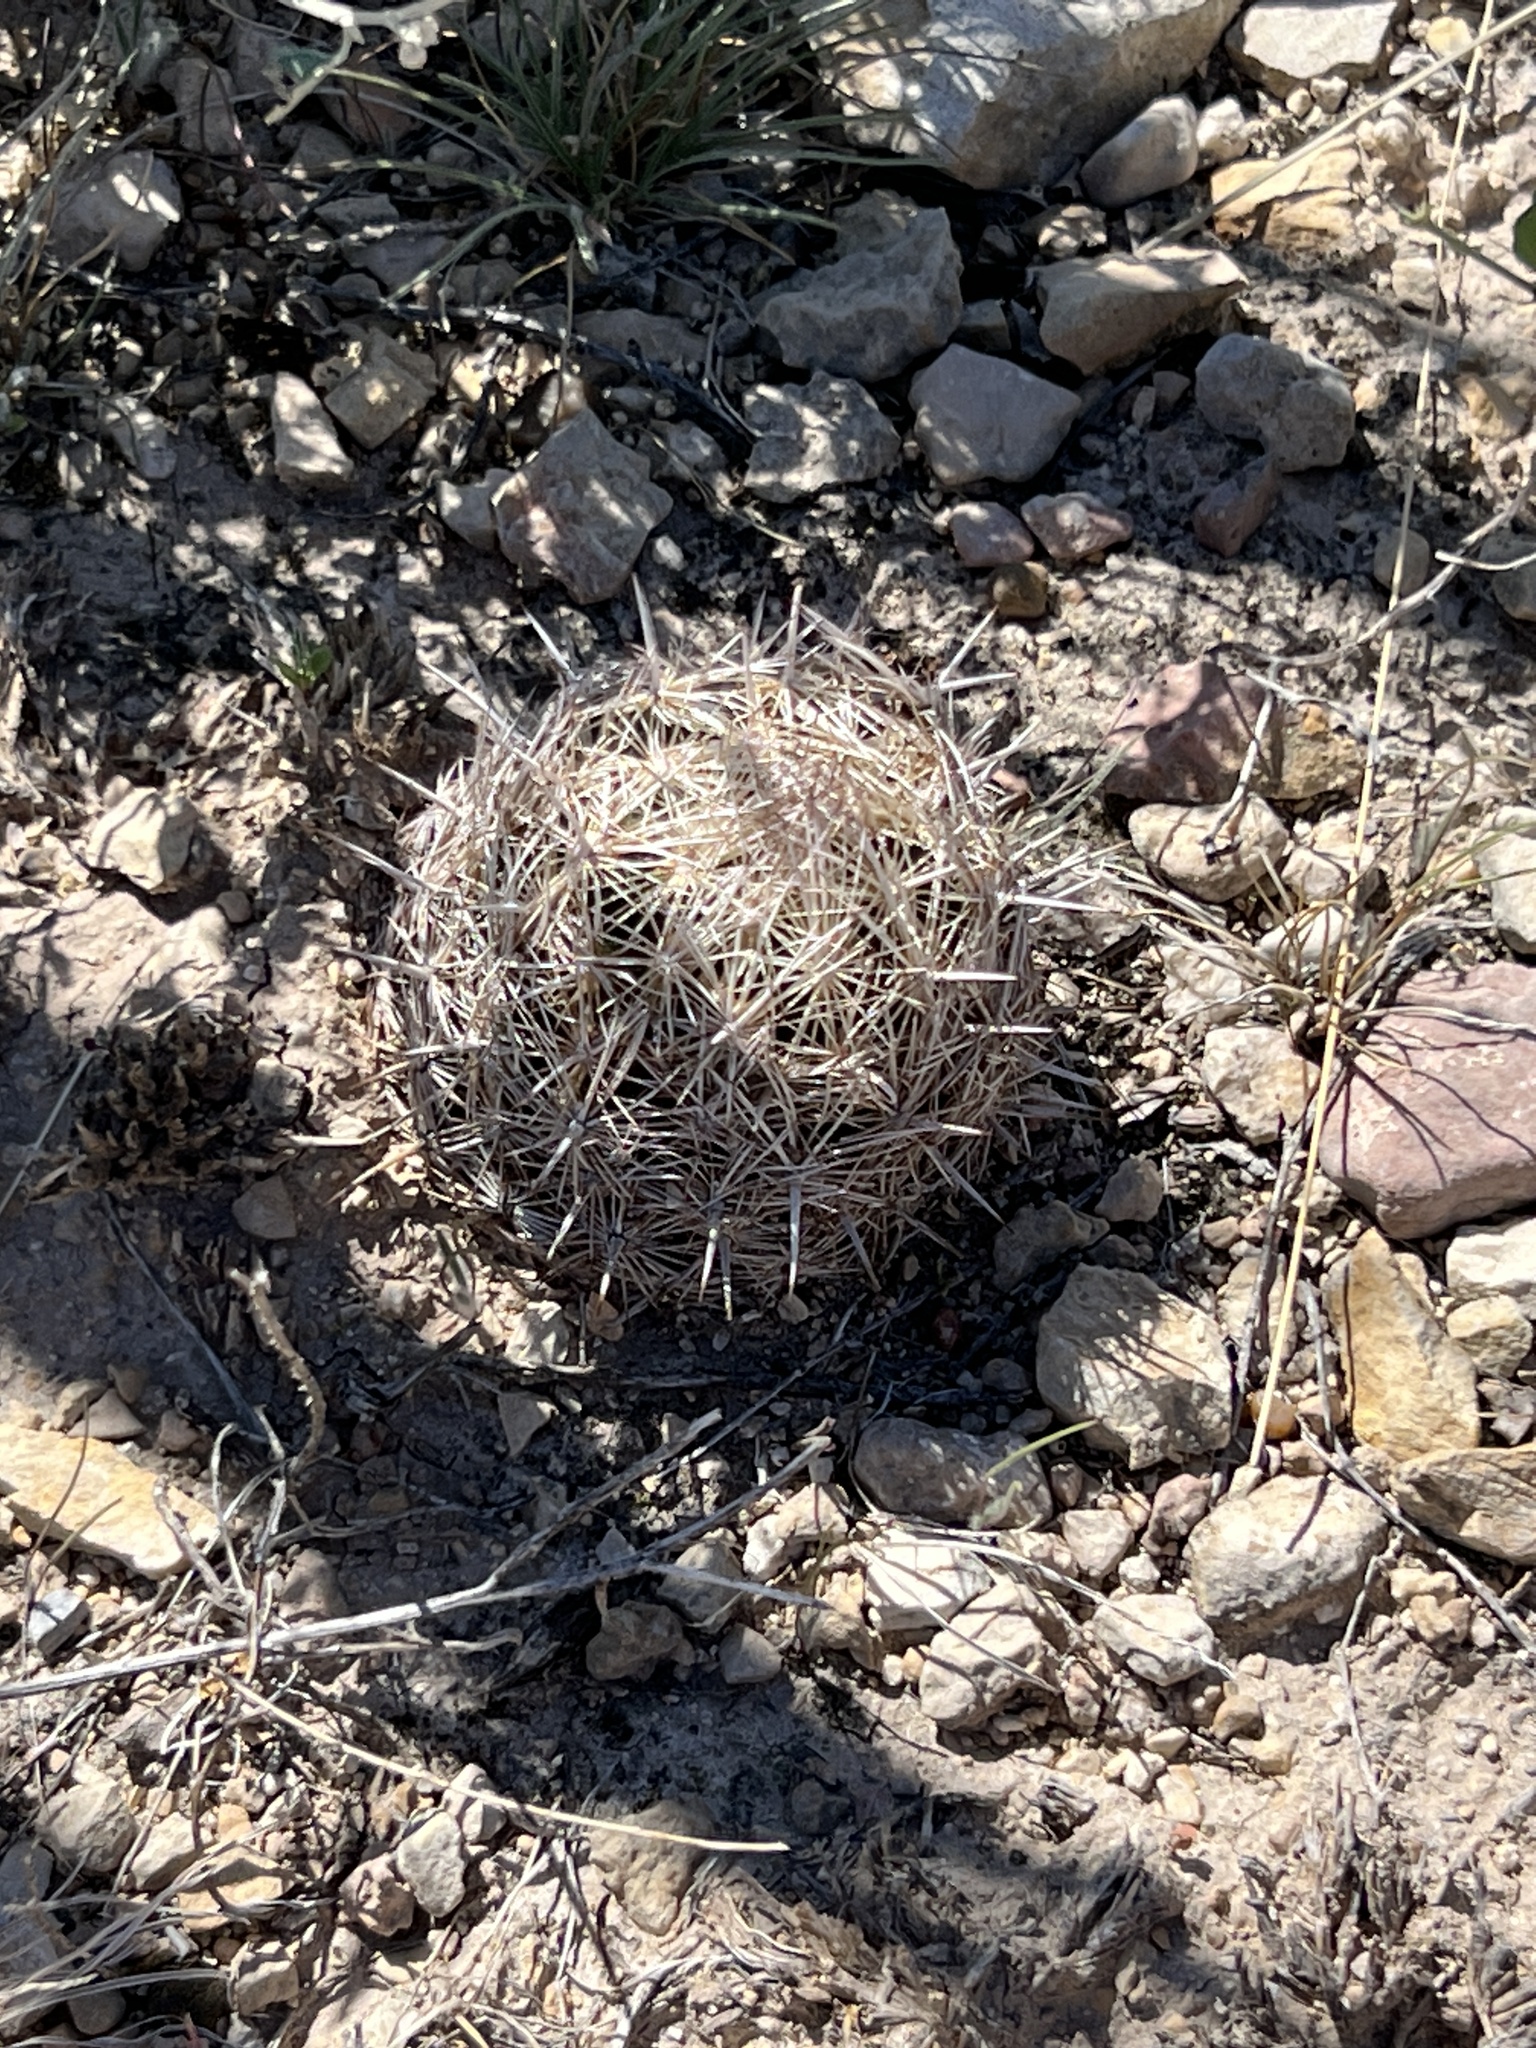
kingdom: Plantae
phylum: Tracheophyta
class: Magnoliopsida
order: Caryophyllales
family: Cactaceae
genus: Coryphantha
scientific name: Coryphantha echinus
